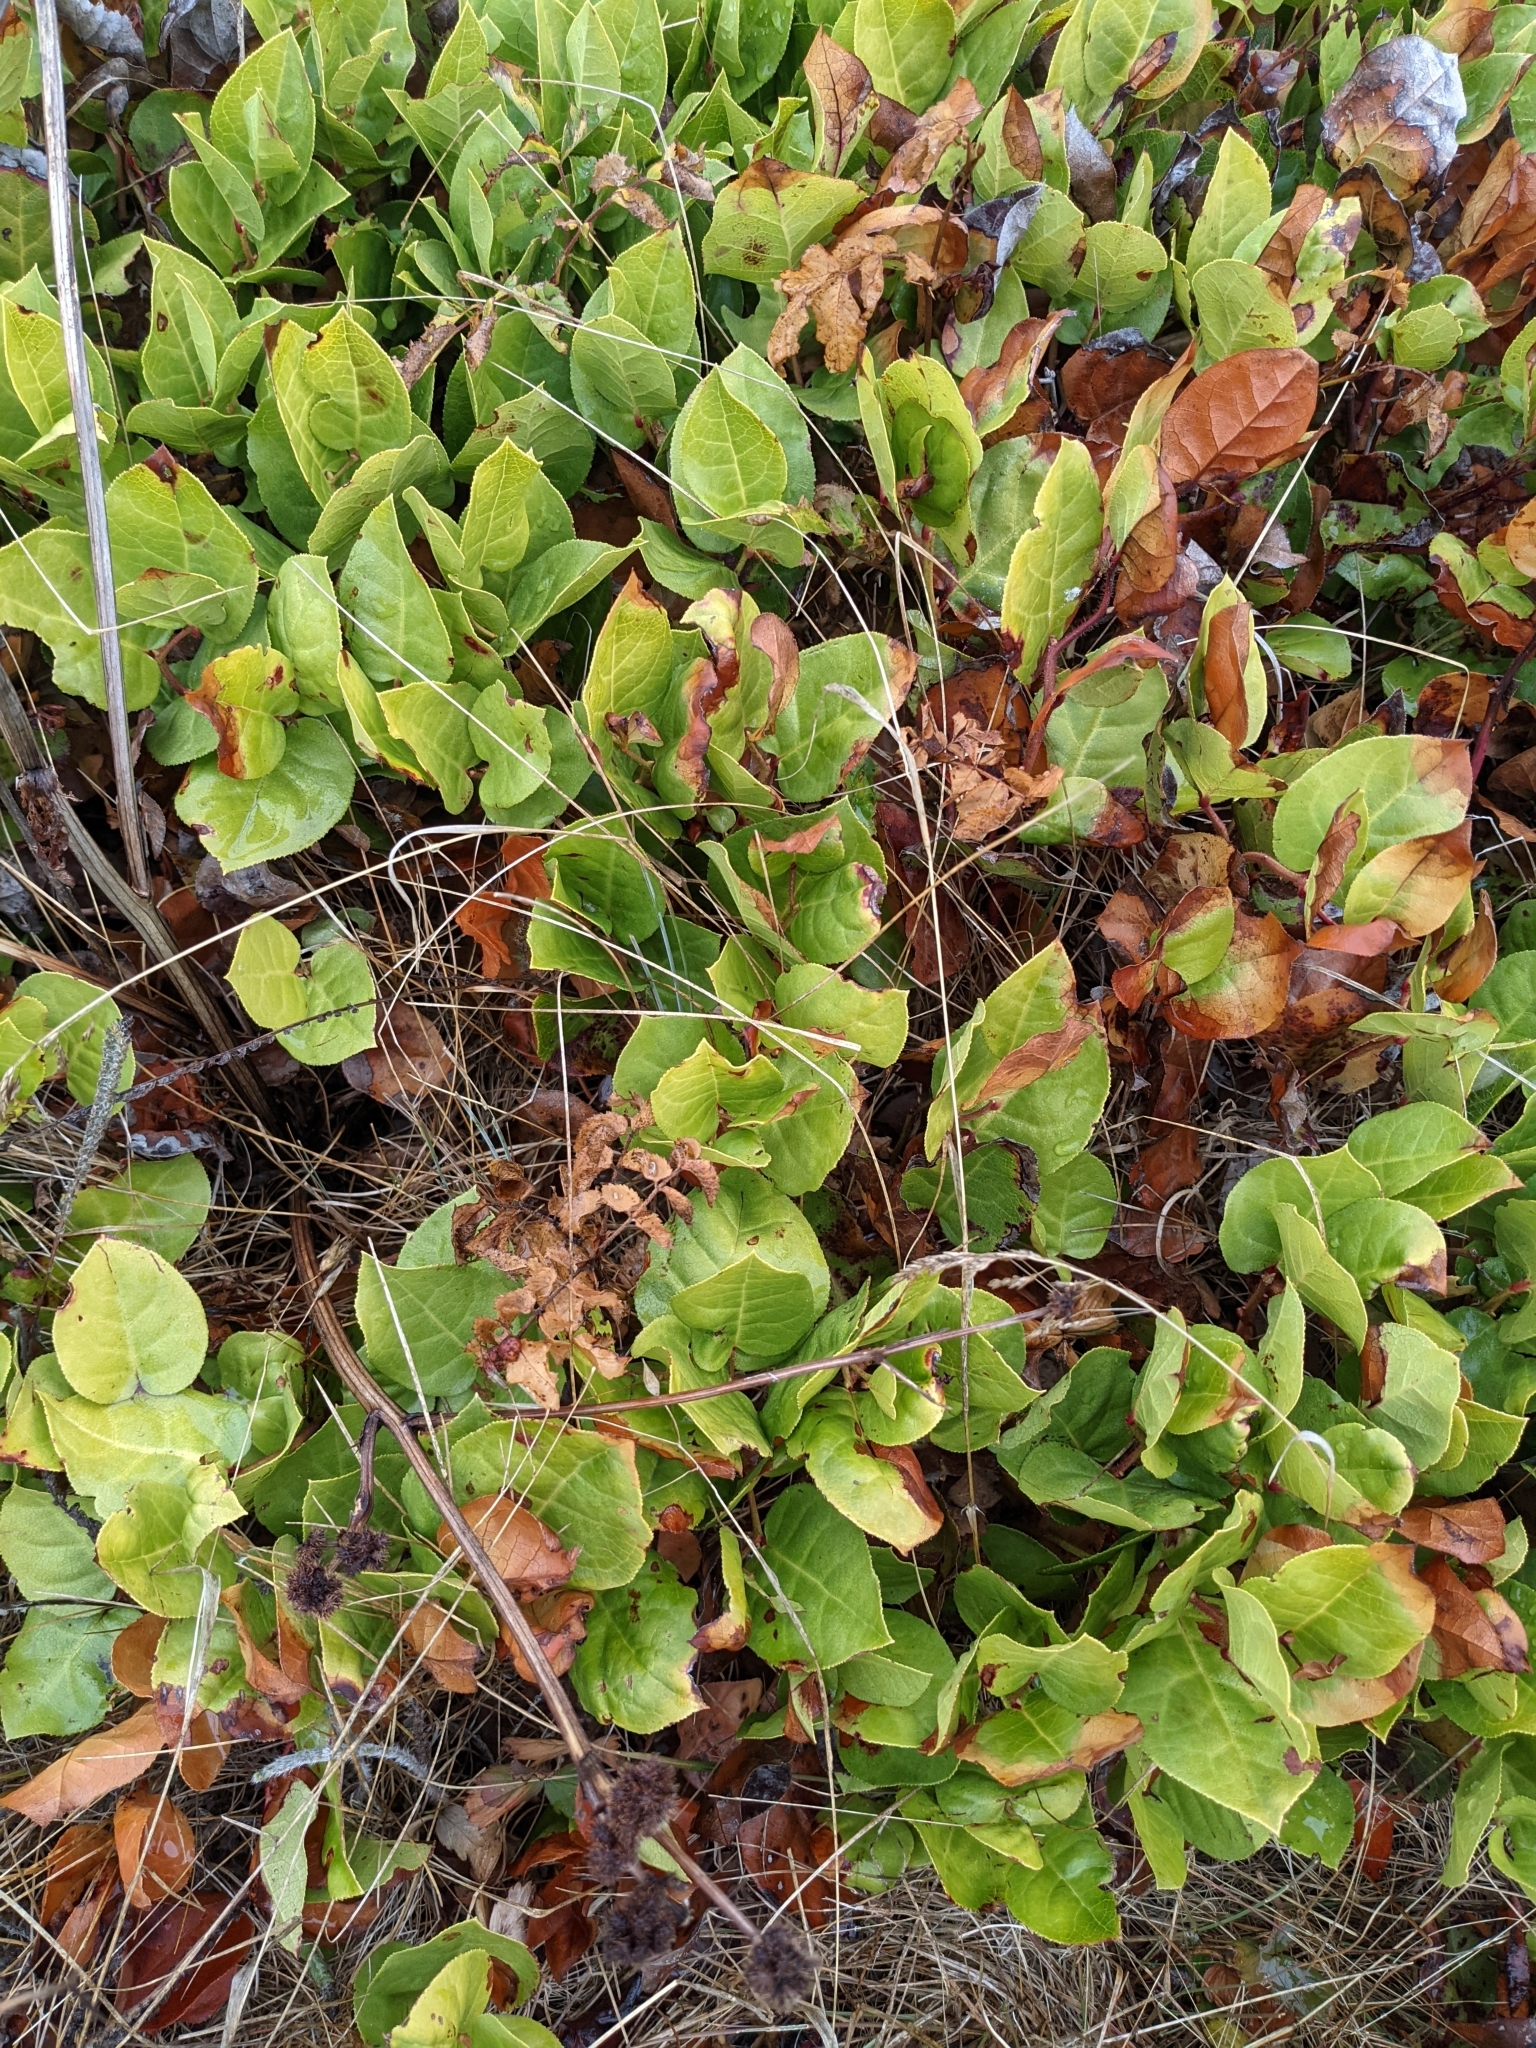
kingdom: Plantae
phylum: Tracheophyta
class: Magnoliopsida
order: Ericales
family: Ericaceae
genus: Gaultheria
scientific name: Gaultheria shallon
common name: Shallon
